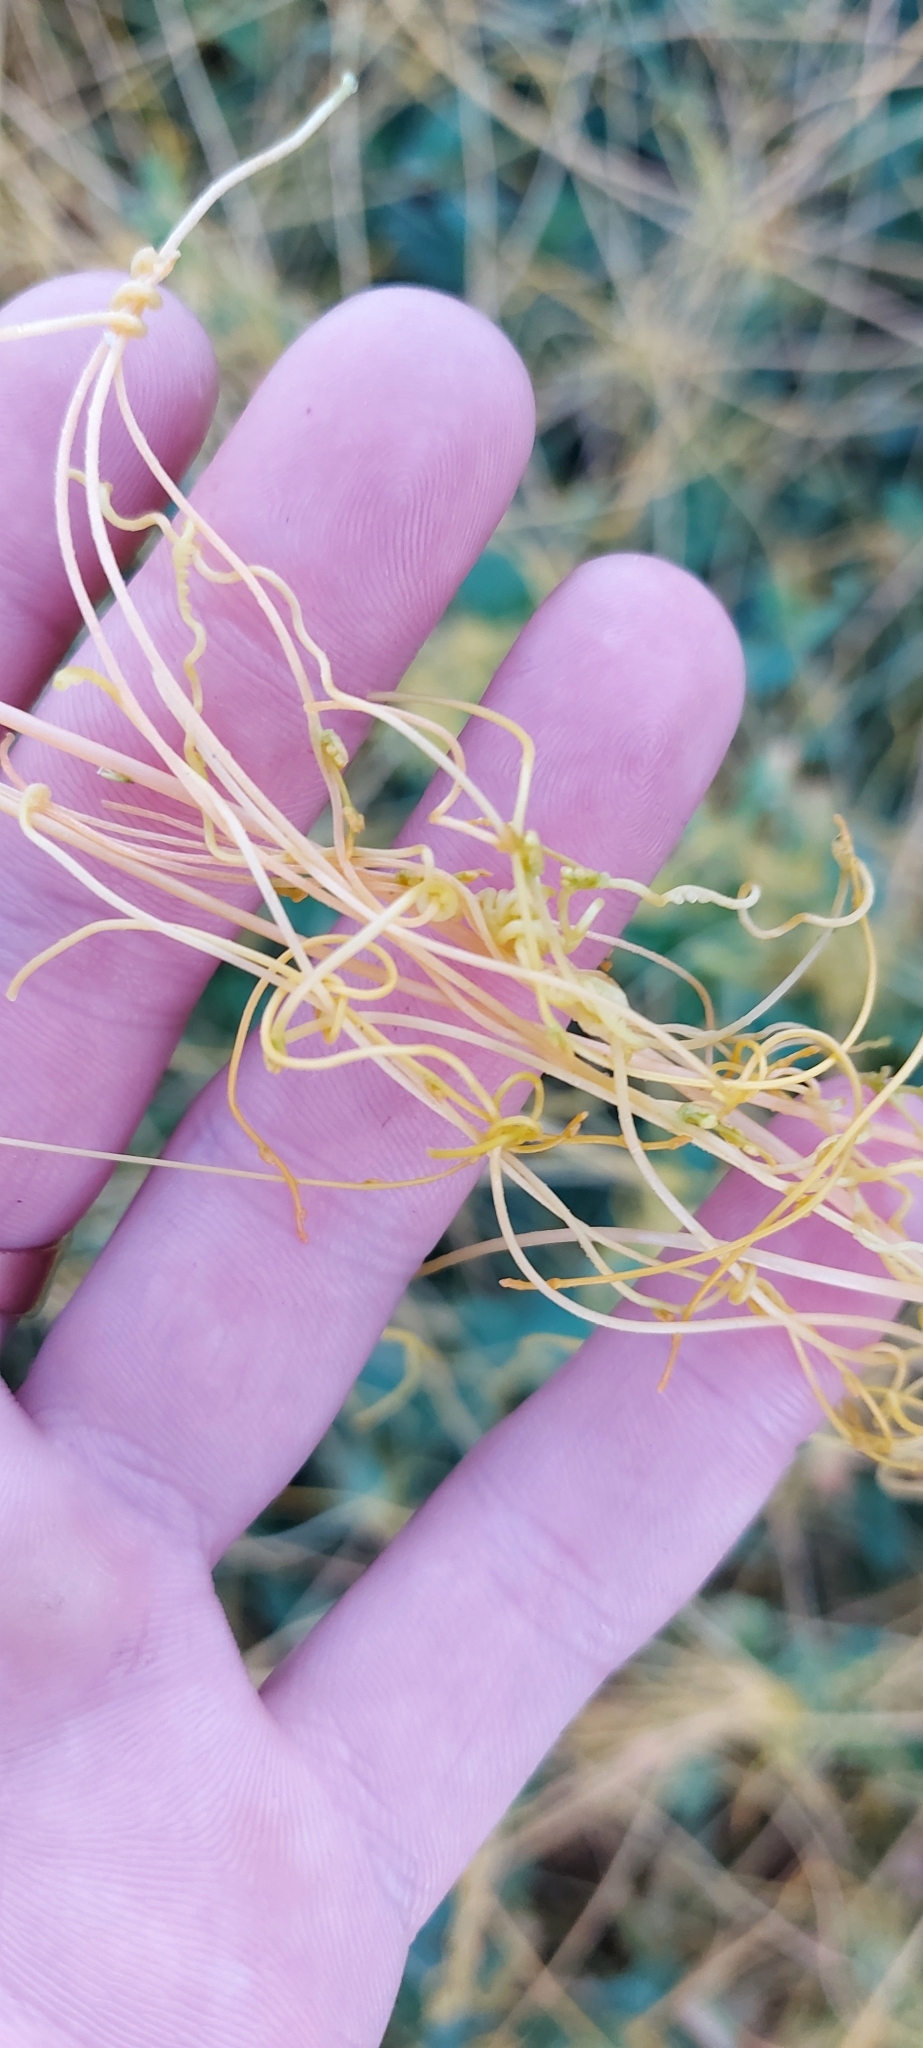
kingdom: Plantae
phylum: Tracheophyta
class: Magnoliopsida
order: Solanales
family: Convolvulaceae
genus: Cuscuta
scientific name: Cuscuta campestris
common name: Yellow dodder
